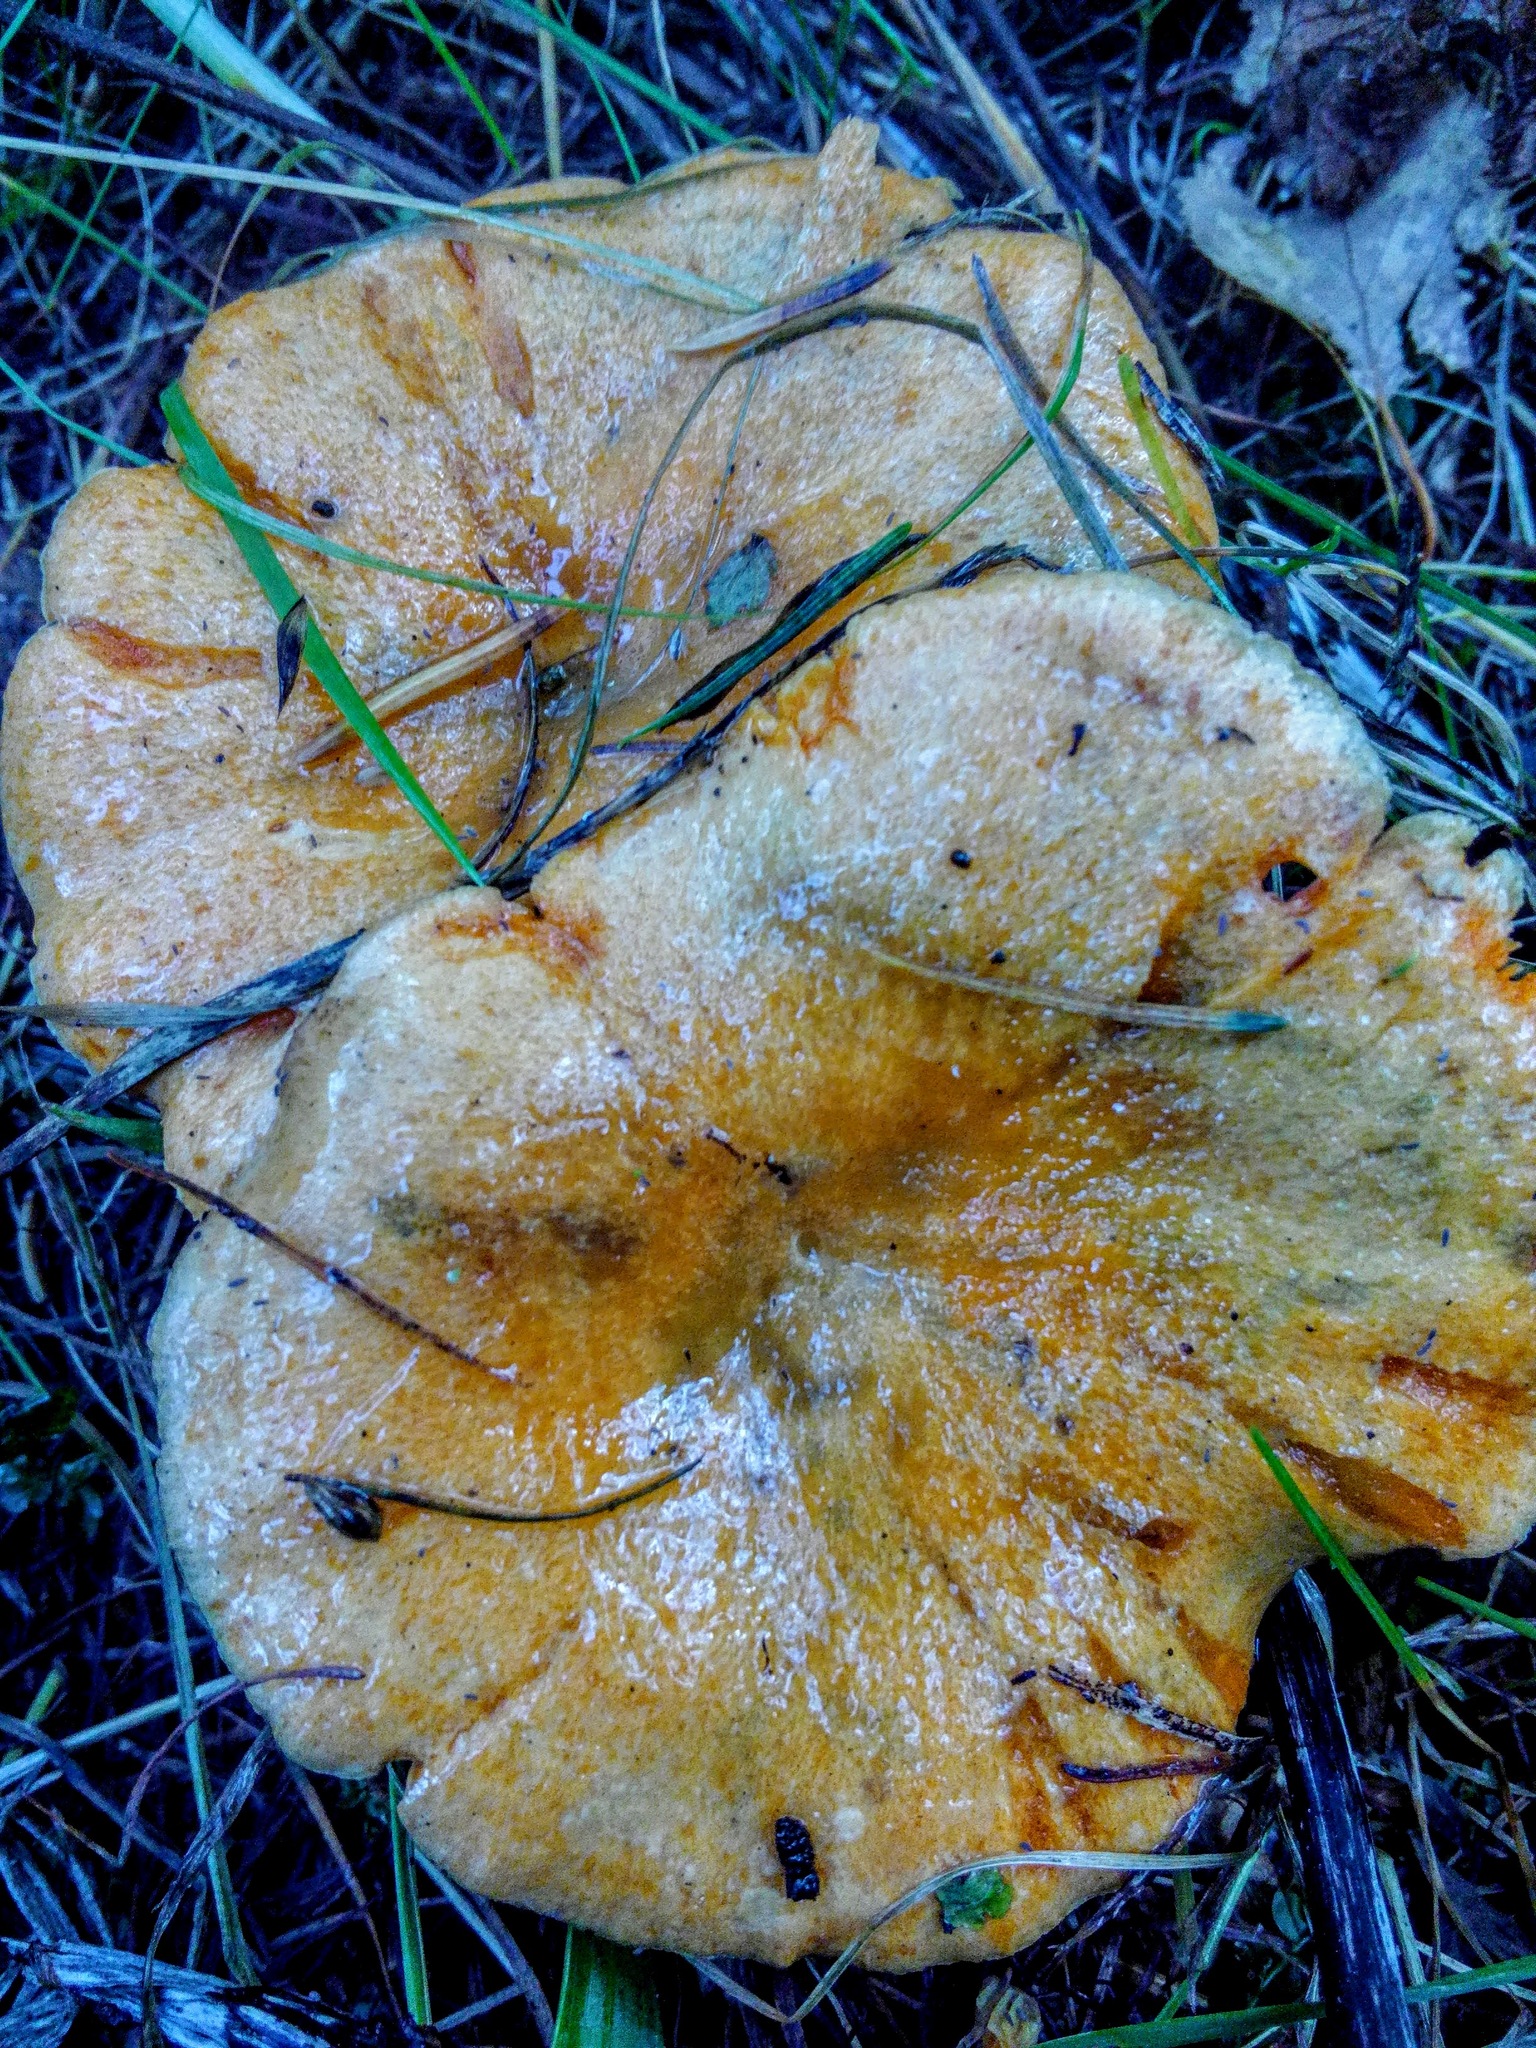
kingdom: Fungi
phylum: Basidiomycota
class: Agaricomycetes
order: Russulales
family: Russulaceae
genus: Lactarius
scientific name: Lactarius deliciosus
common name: Saffron milk-cap
